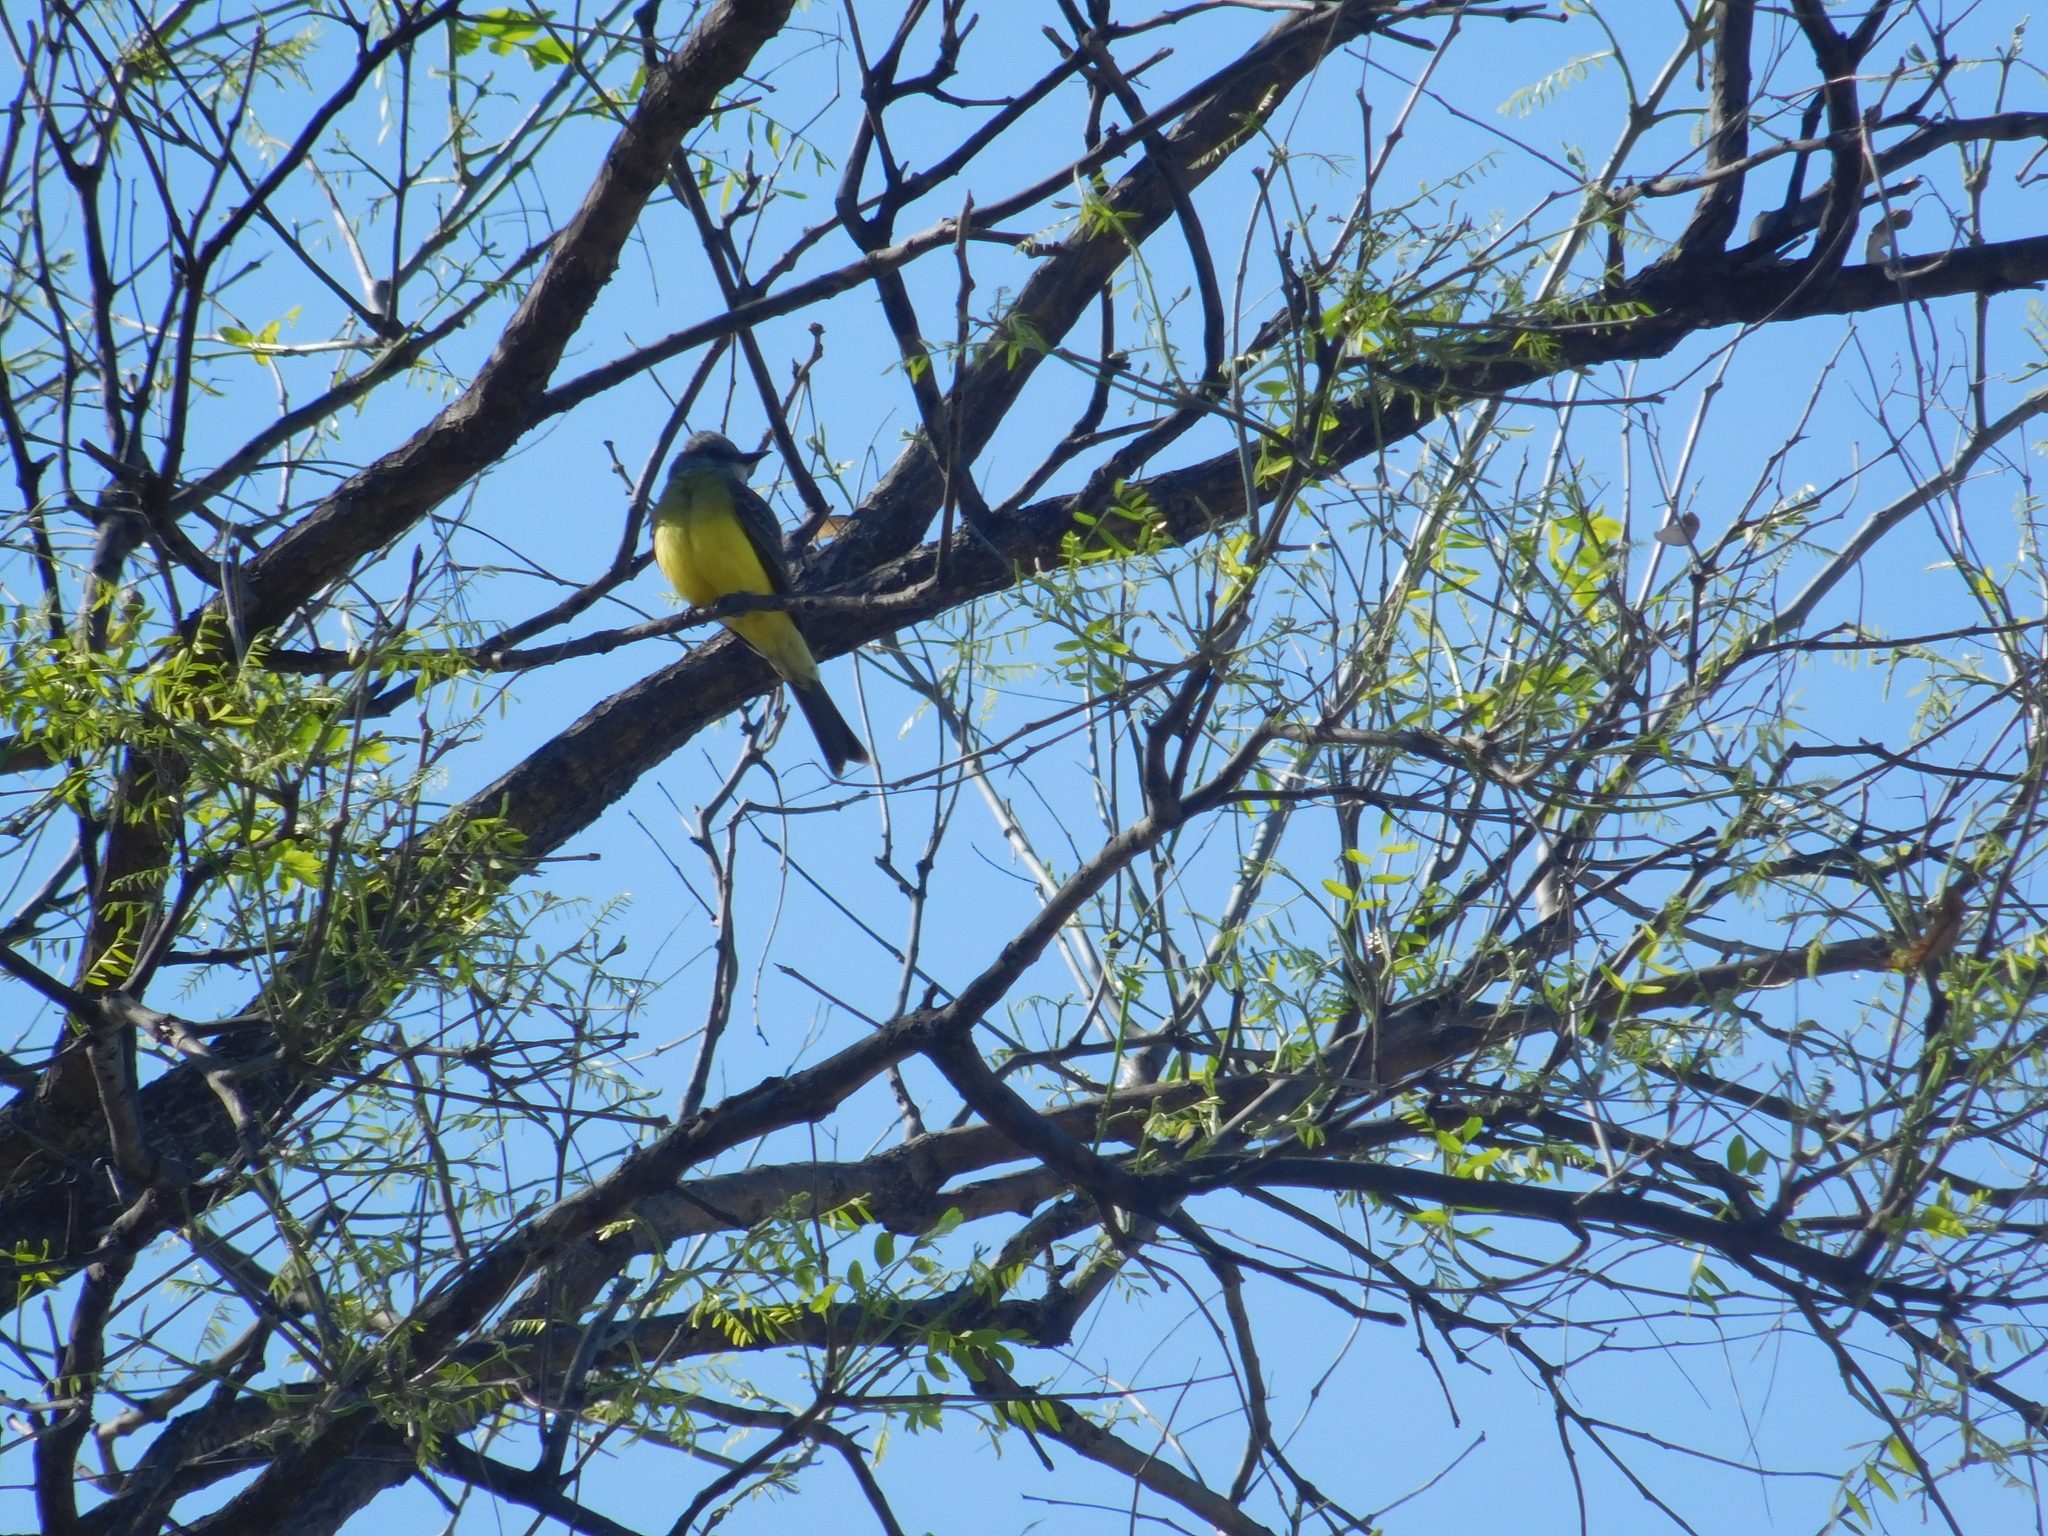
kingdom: Animalia
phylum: Chordata
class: Aves
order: Passeriformes
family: Tyrannidae
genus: Tyrannus
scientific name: Tyrannus melancholicus
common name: Tropical kingbird
